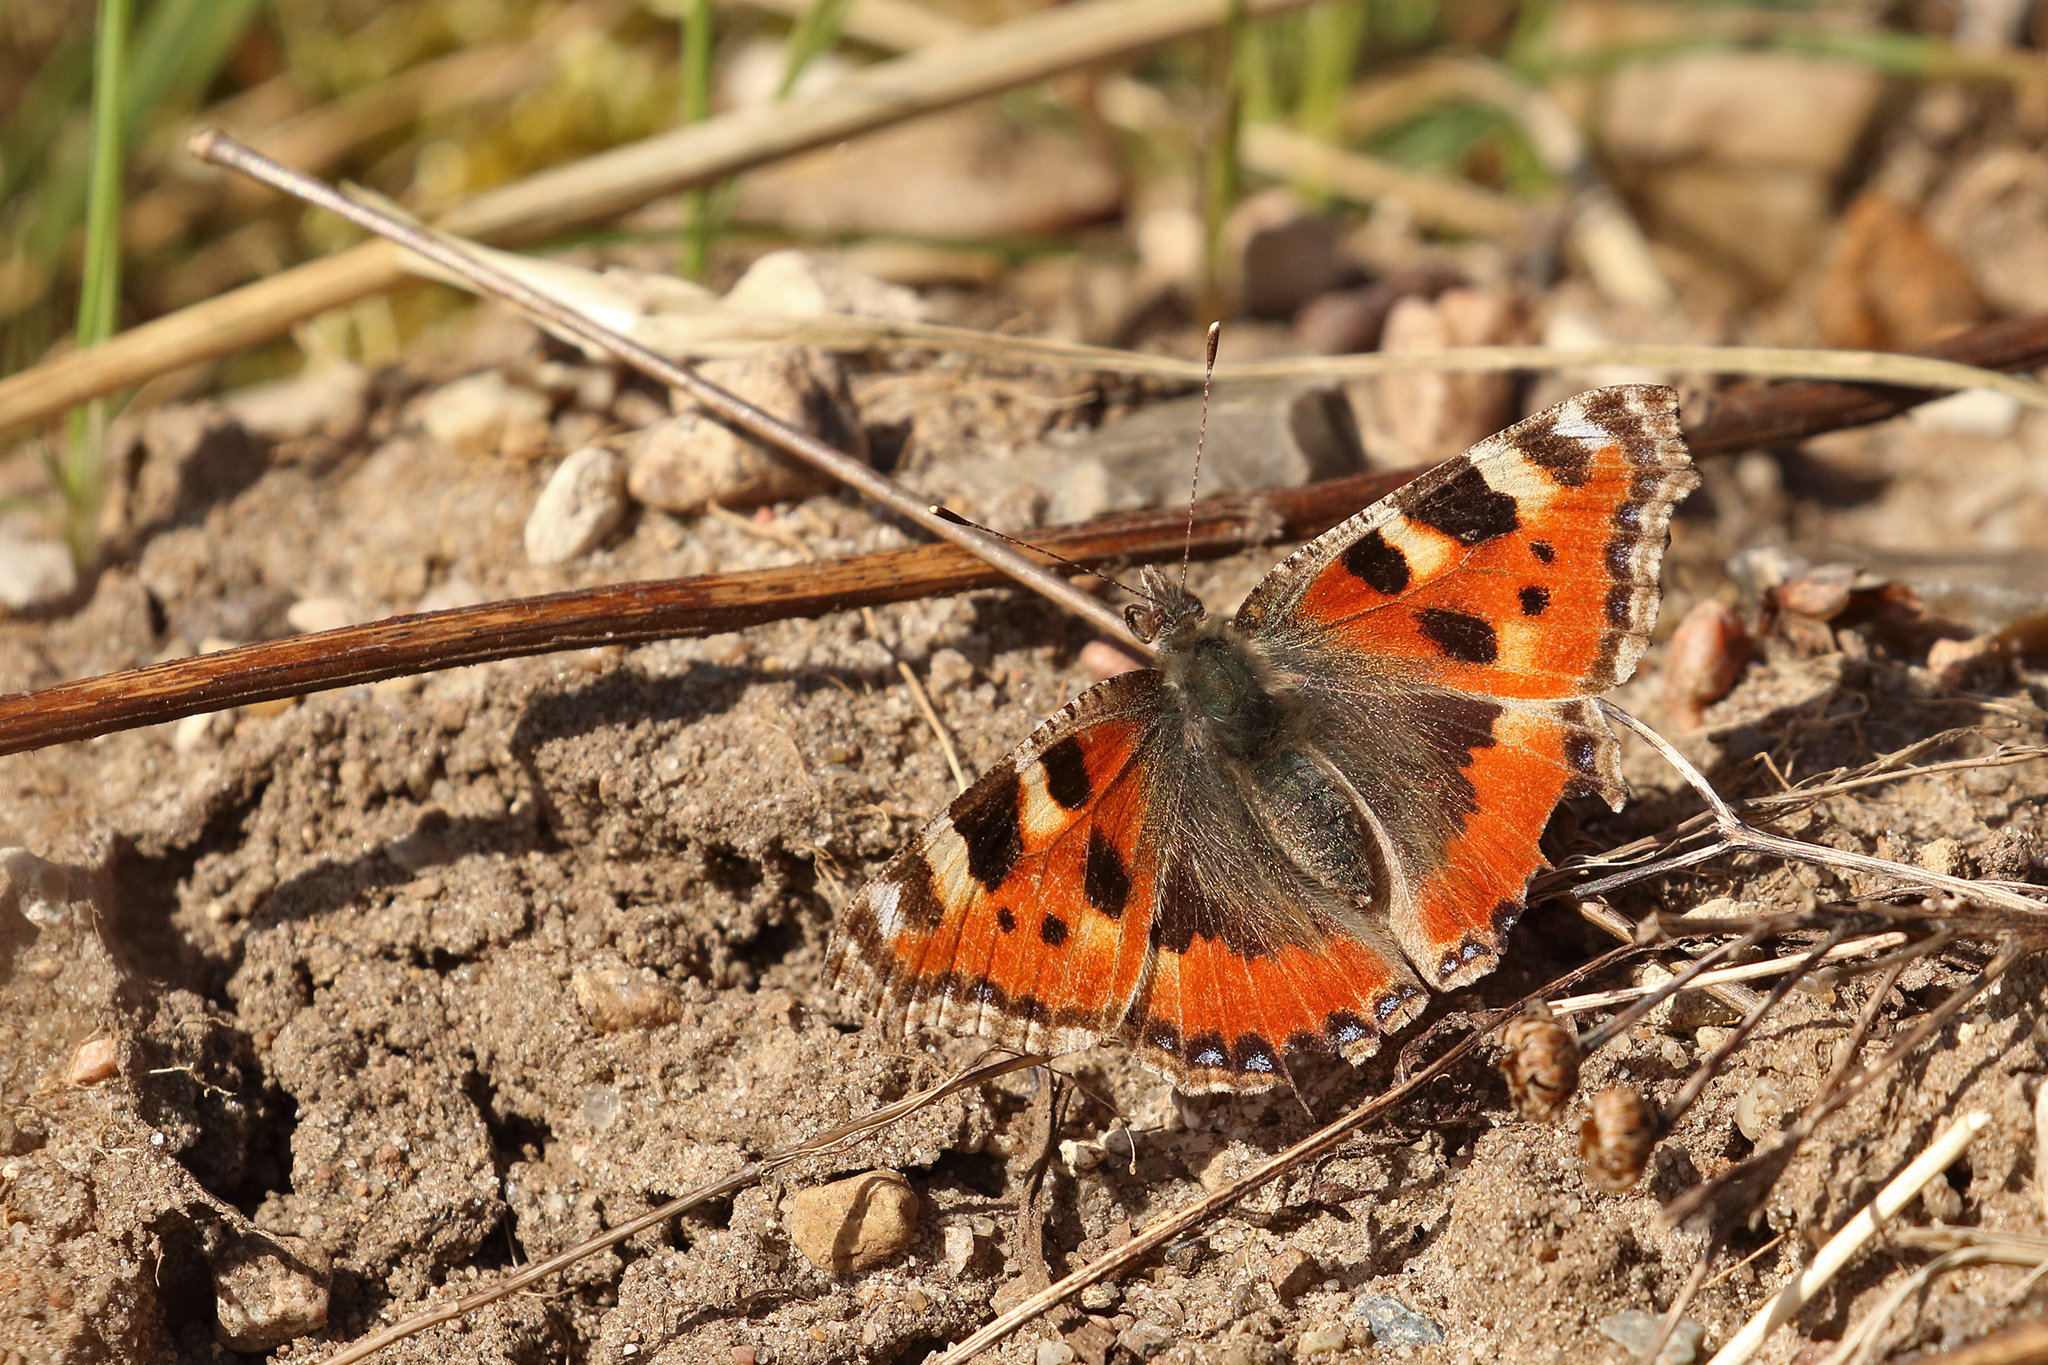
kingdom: Animalia
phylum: Arthropoda
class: Insecta
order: Lepidoptera
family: Nymphalidae
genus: Aglais
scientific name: Aglais urticae
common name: Small tortoiseshell
